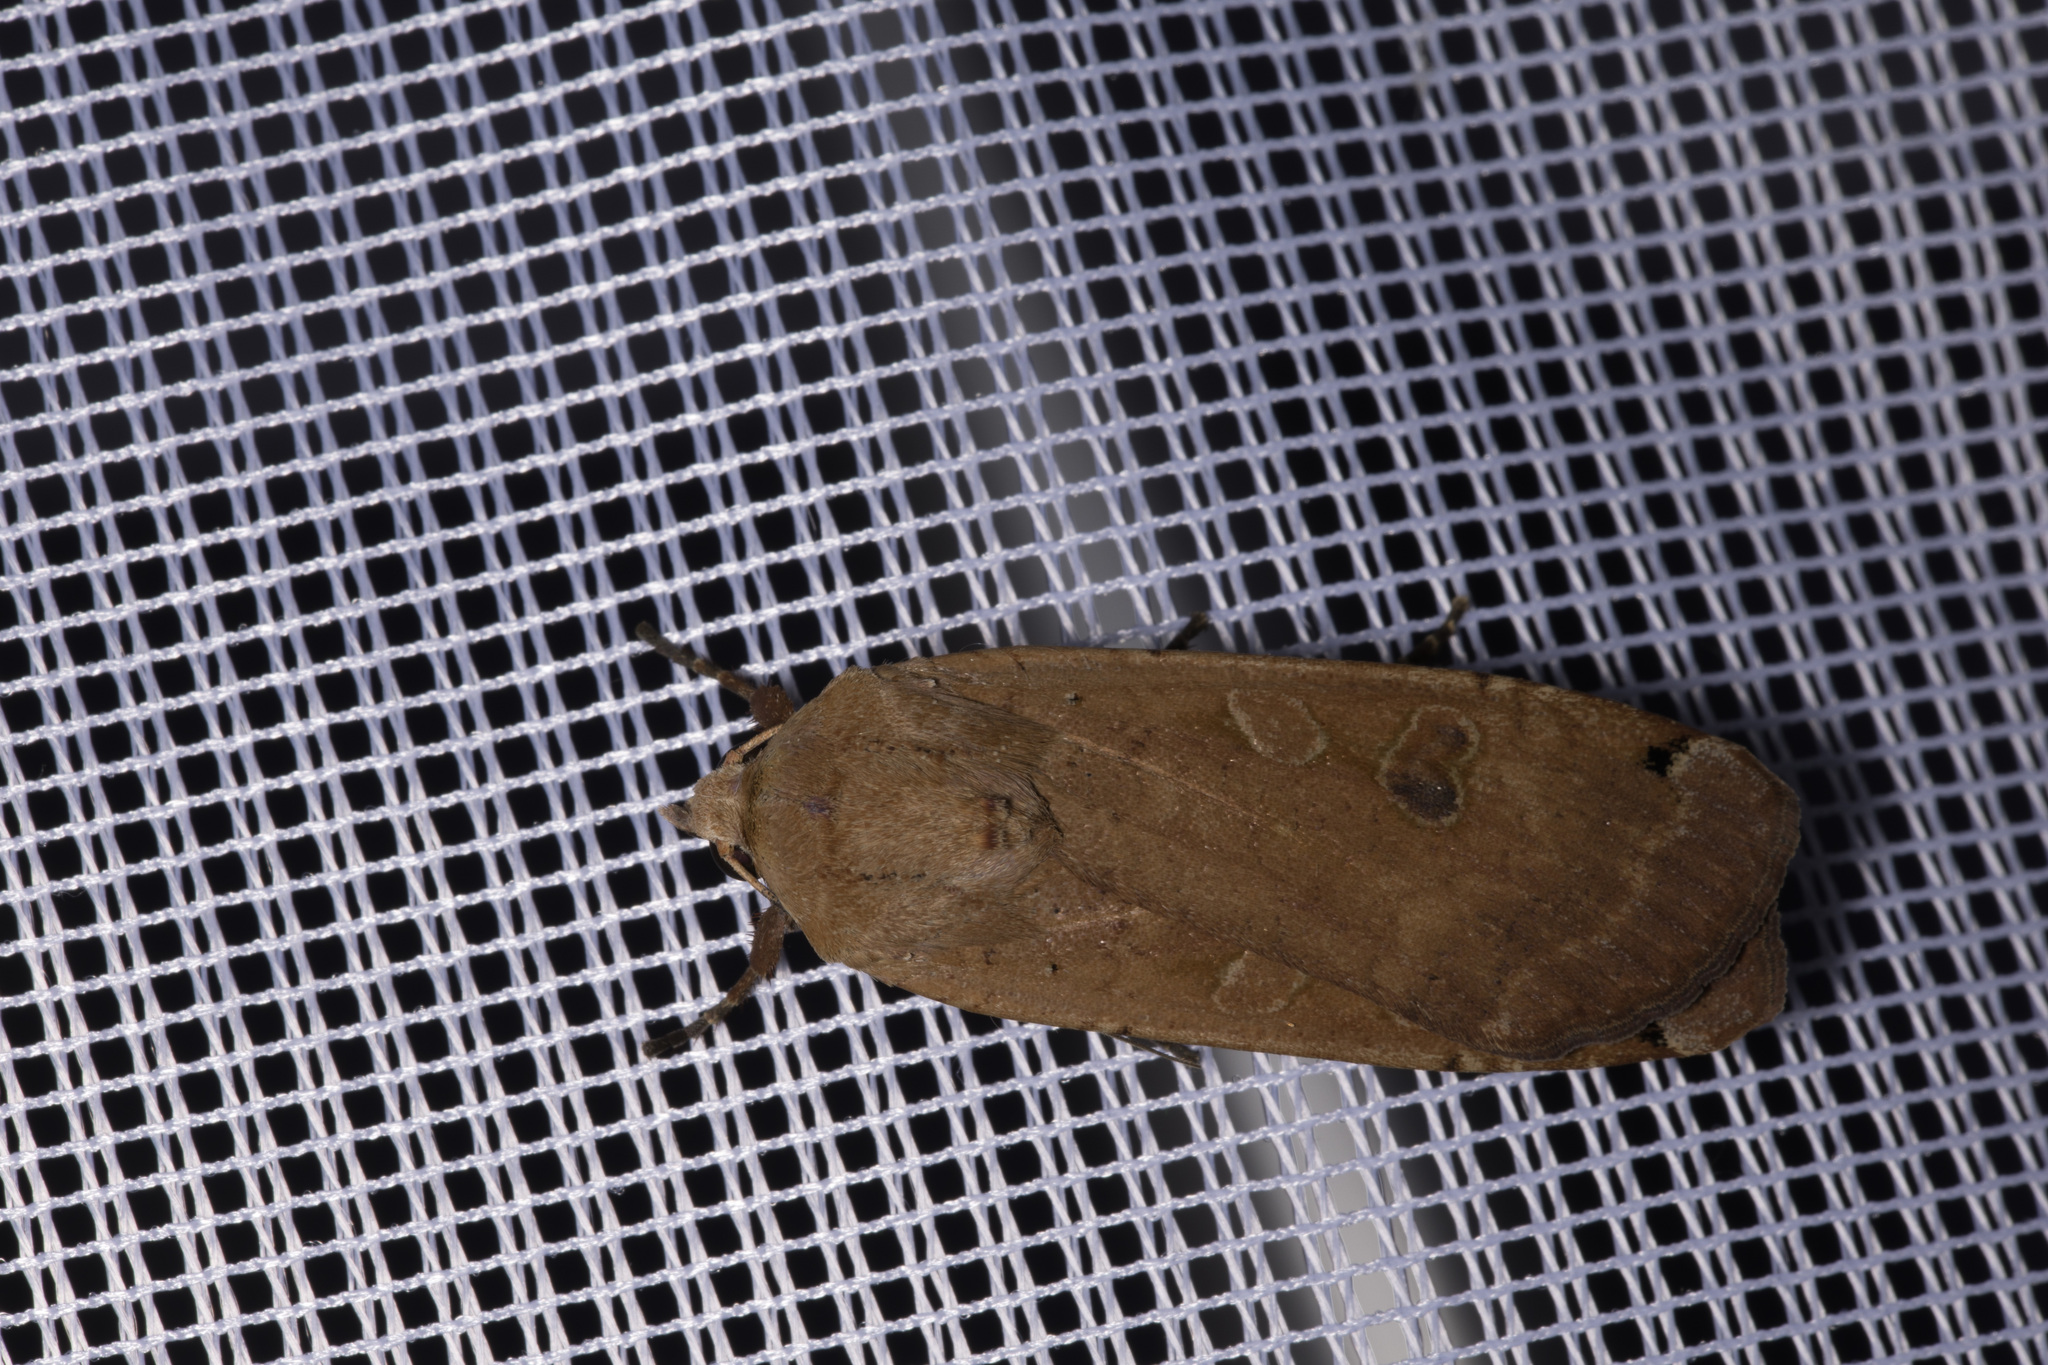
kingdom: Animalia
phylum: Arthropoda
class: Insecta
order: Lepidoptera
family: Noctuidae
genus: Noctua
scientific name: Noctua pronuba
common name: Large yellow underwing
